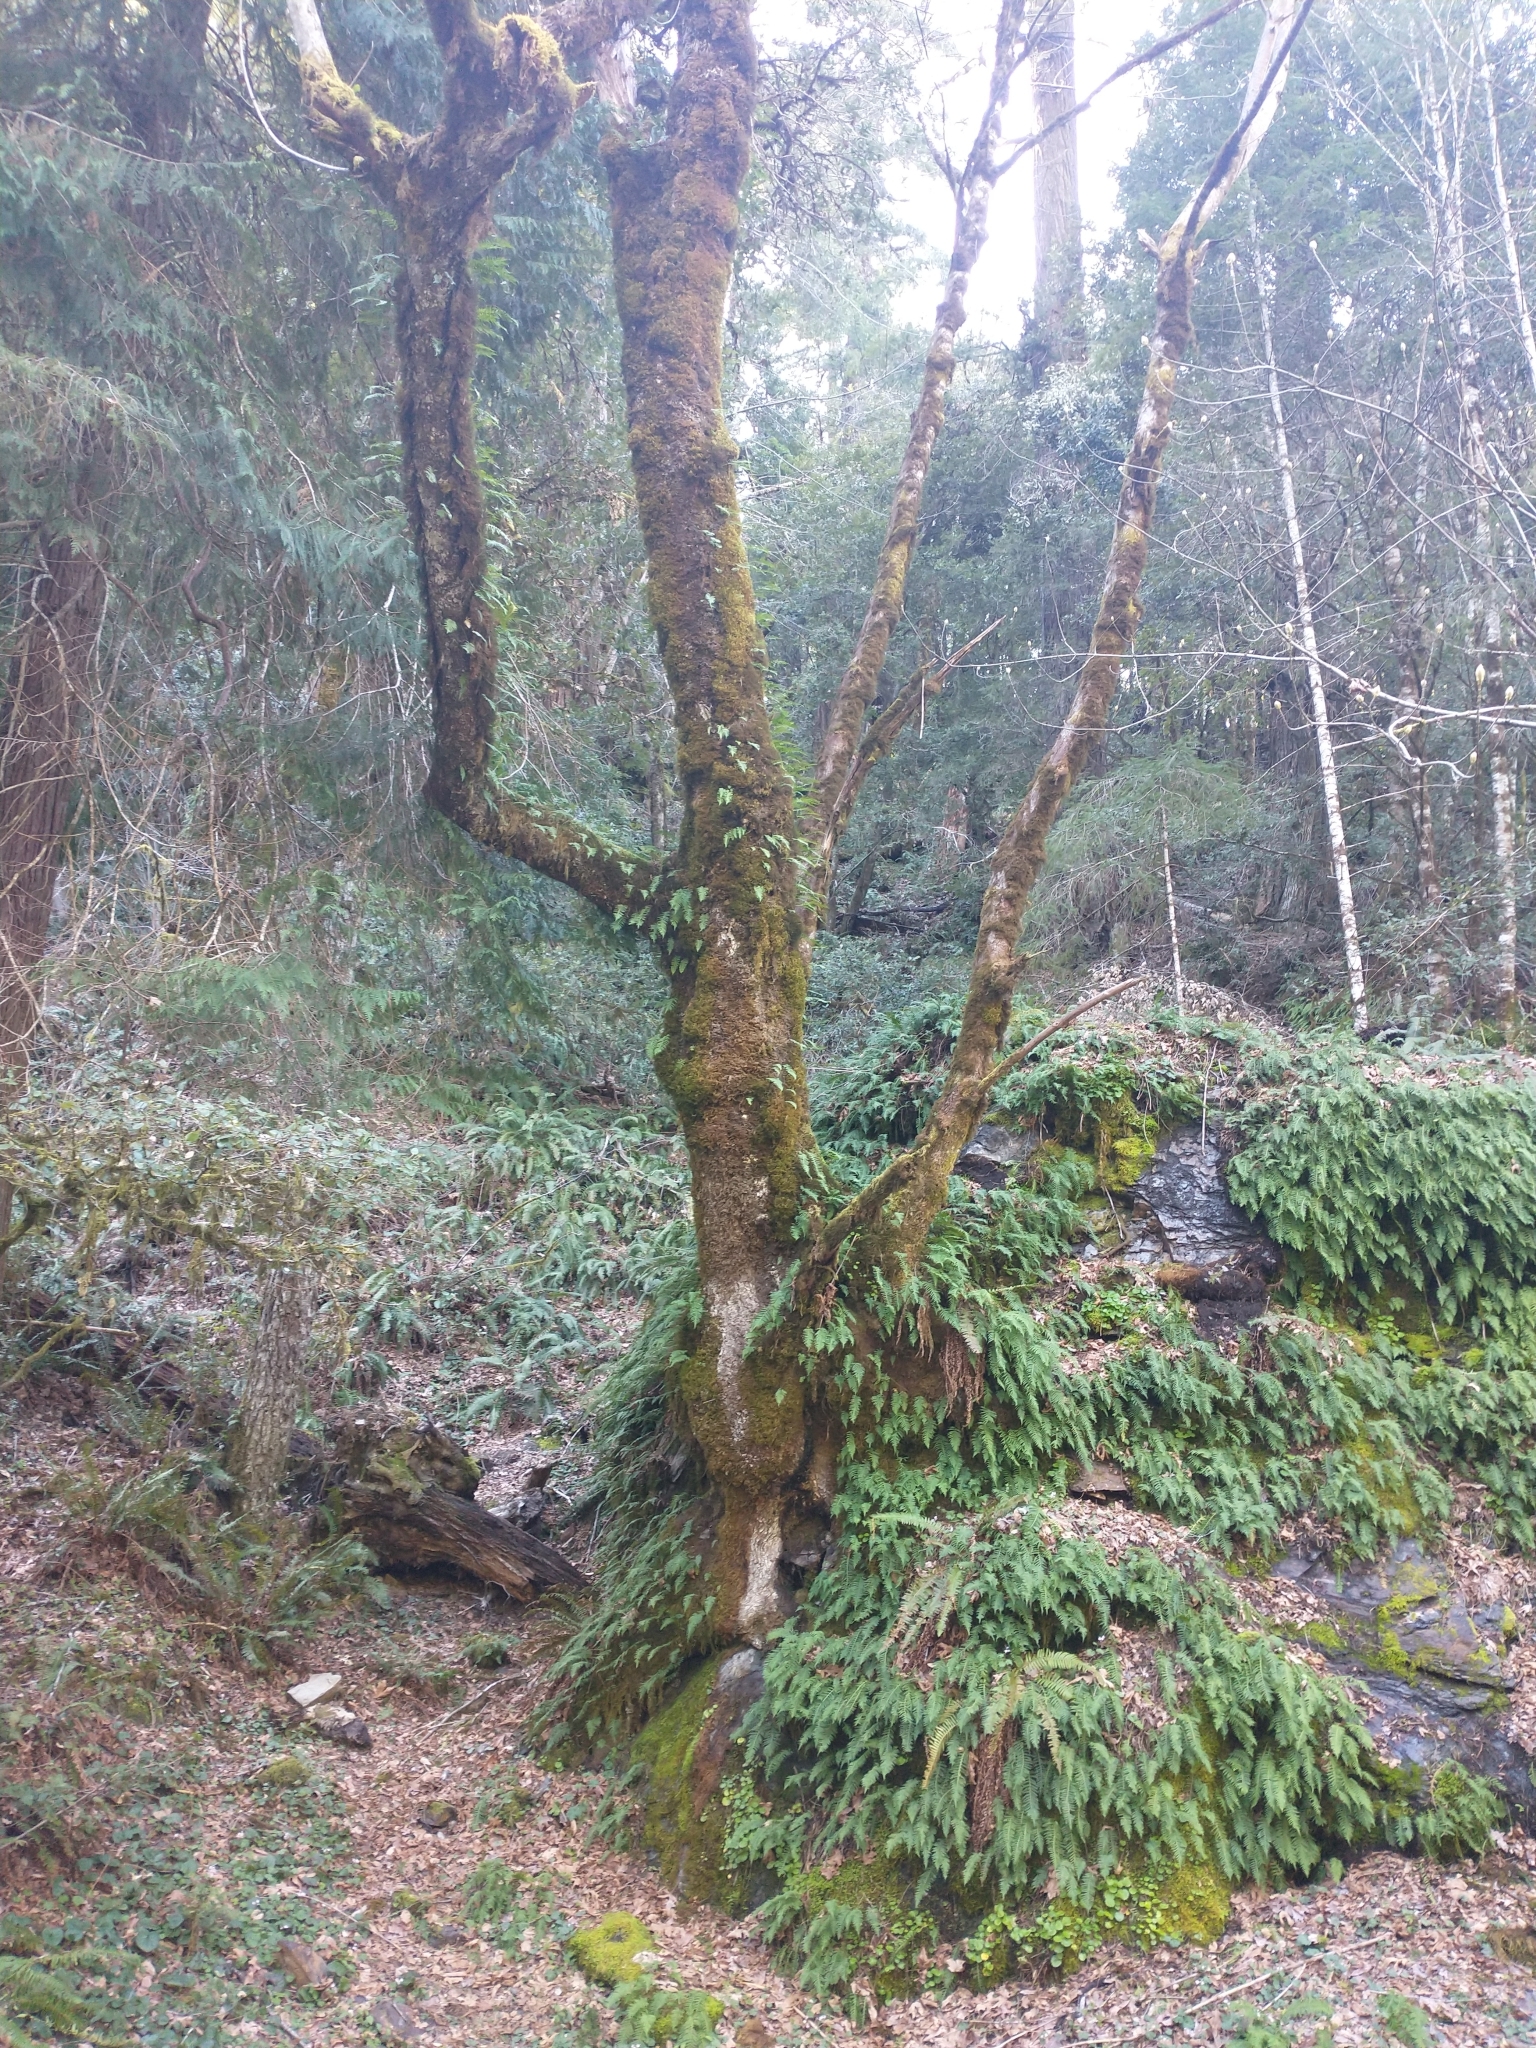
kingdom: Plantae
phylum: Tracheophyta
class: Magnoliopsida
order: Sapindales
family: Sapindaceae
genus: Acer
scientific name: Acer macrophyllum
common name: Oregon maple
